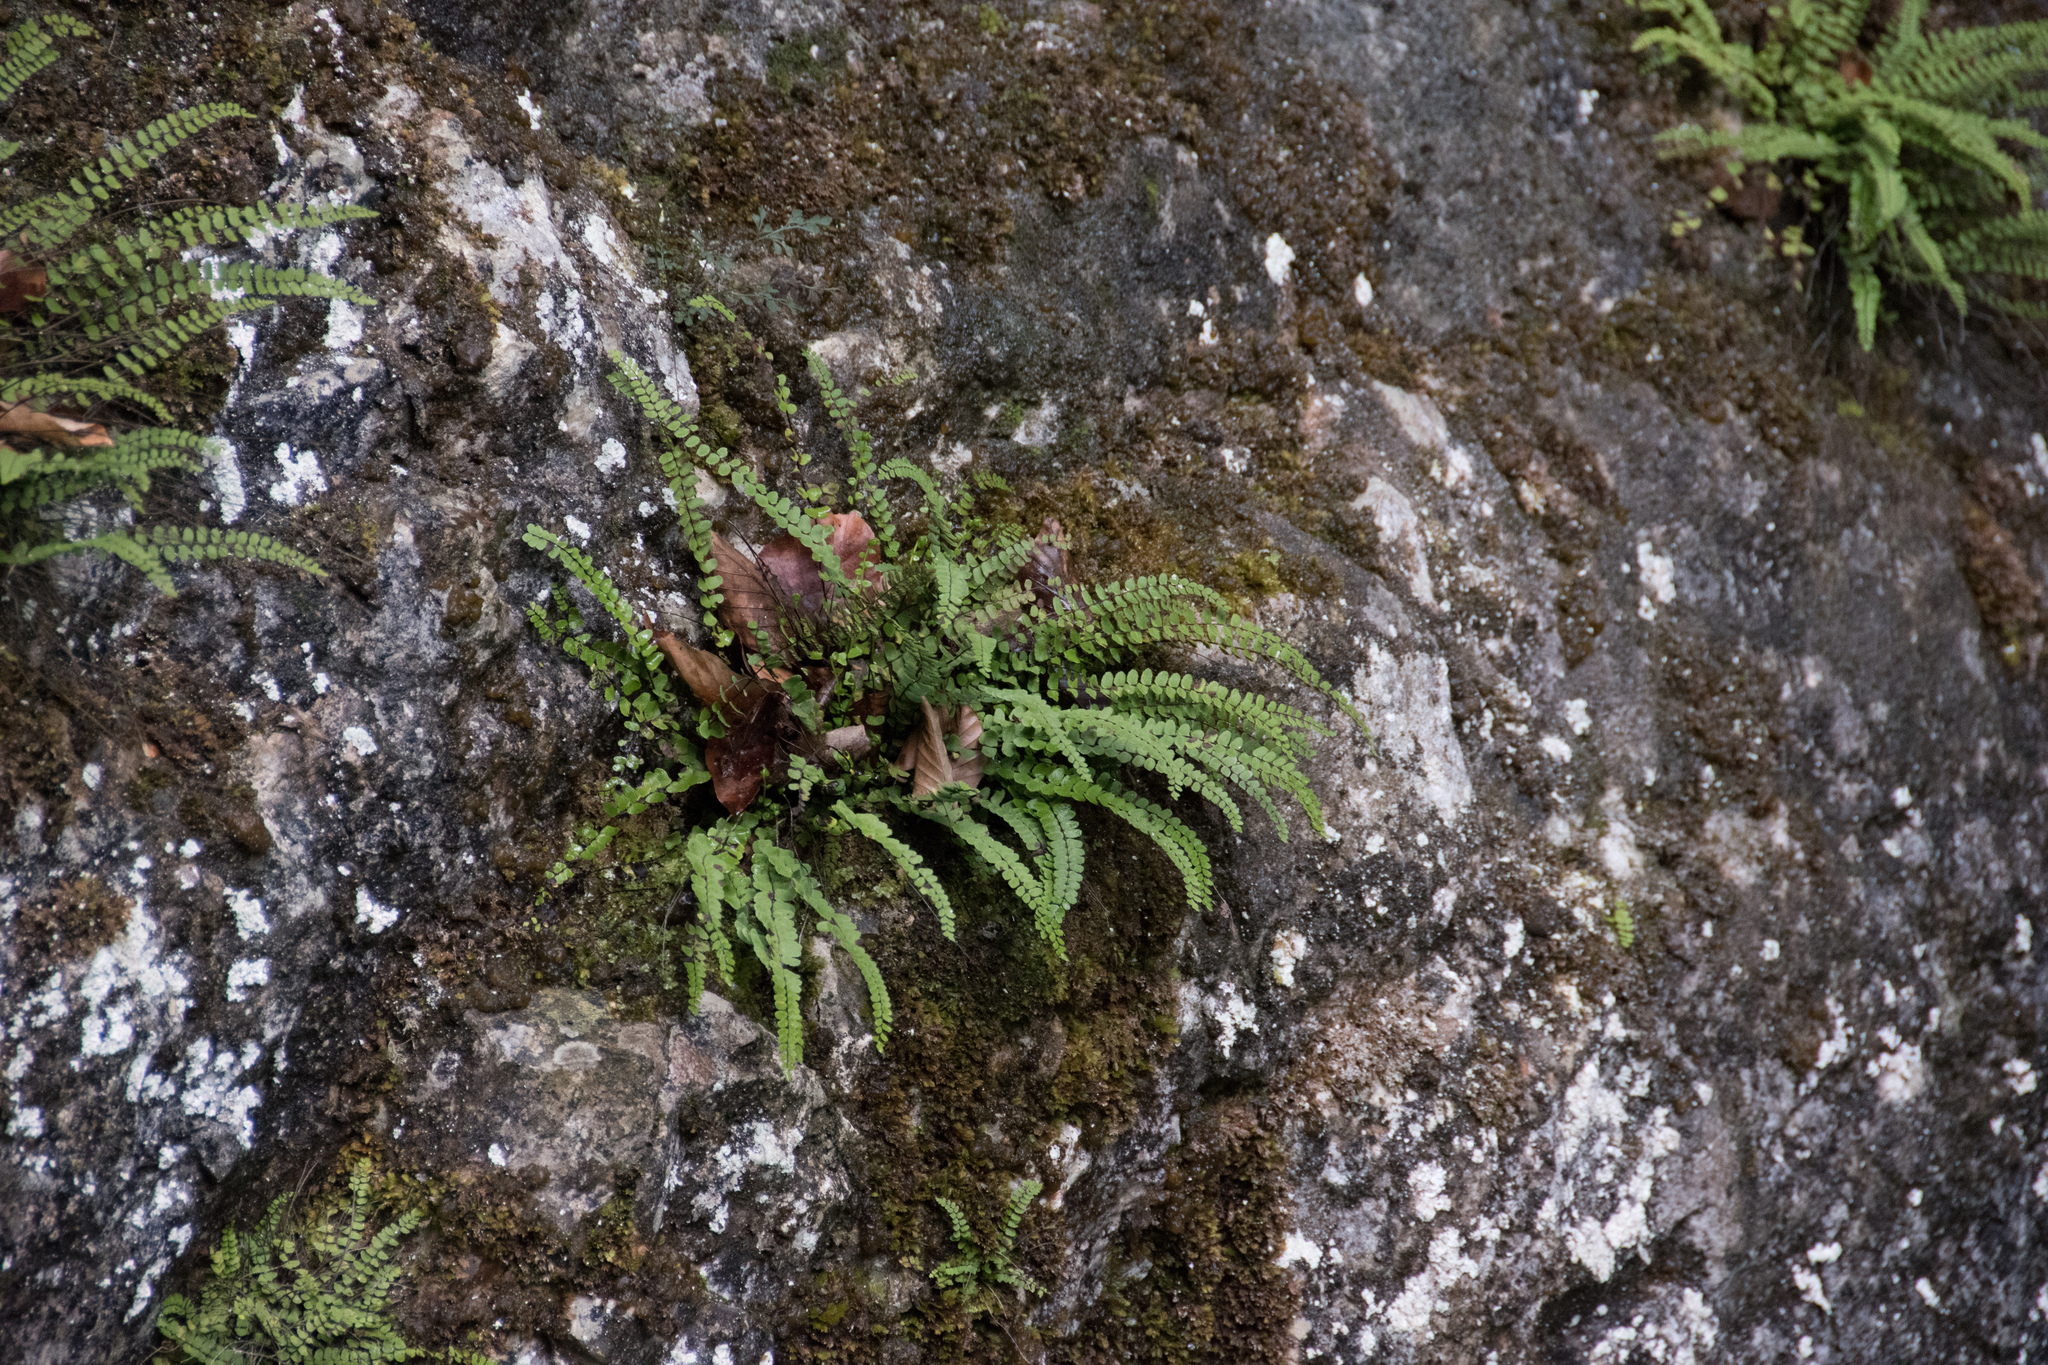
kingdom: Plantae
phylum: Tracheophyta
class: Polypodiopsida
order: Polypodiales
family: Aspleniaceae
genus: Asplenium
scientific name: Asplenium trichomanes
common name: Maidenhair spleenwort
